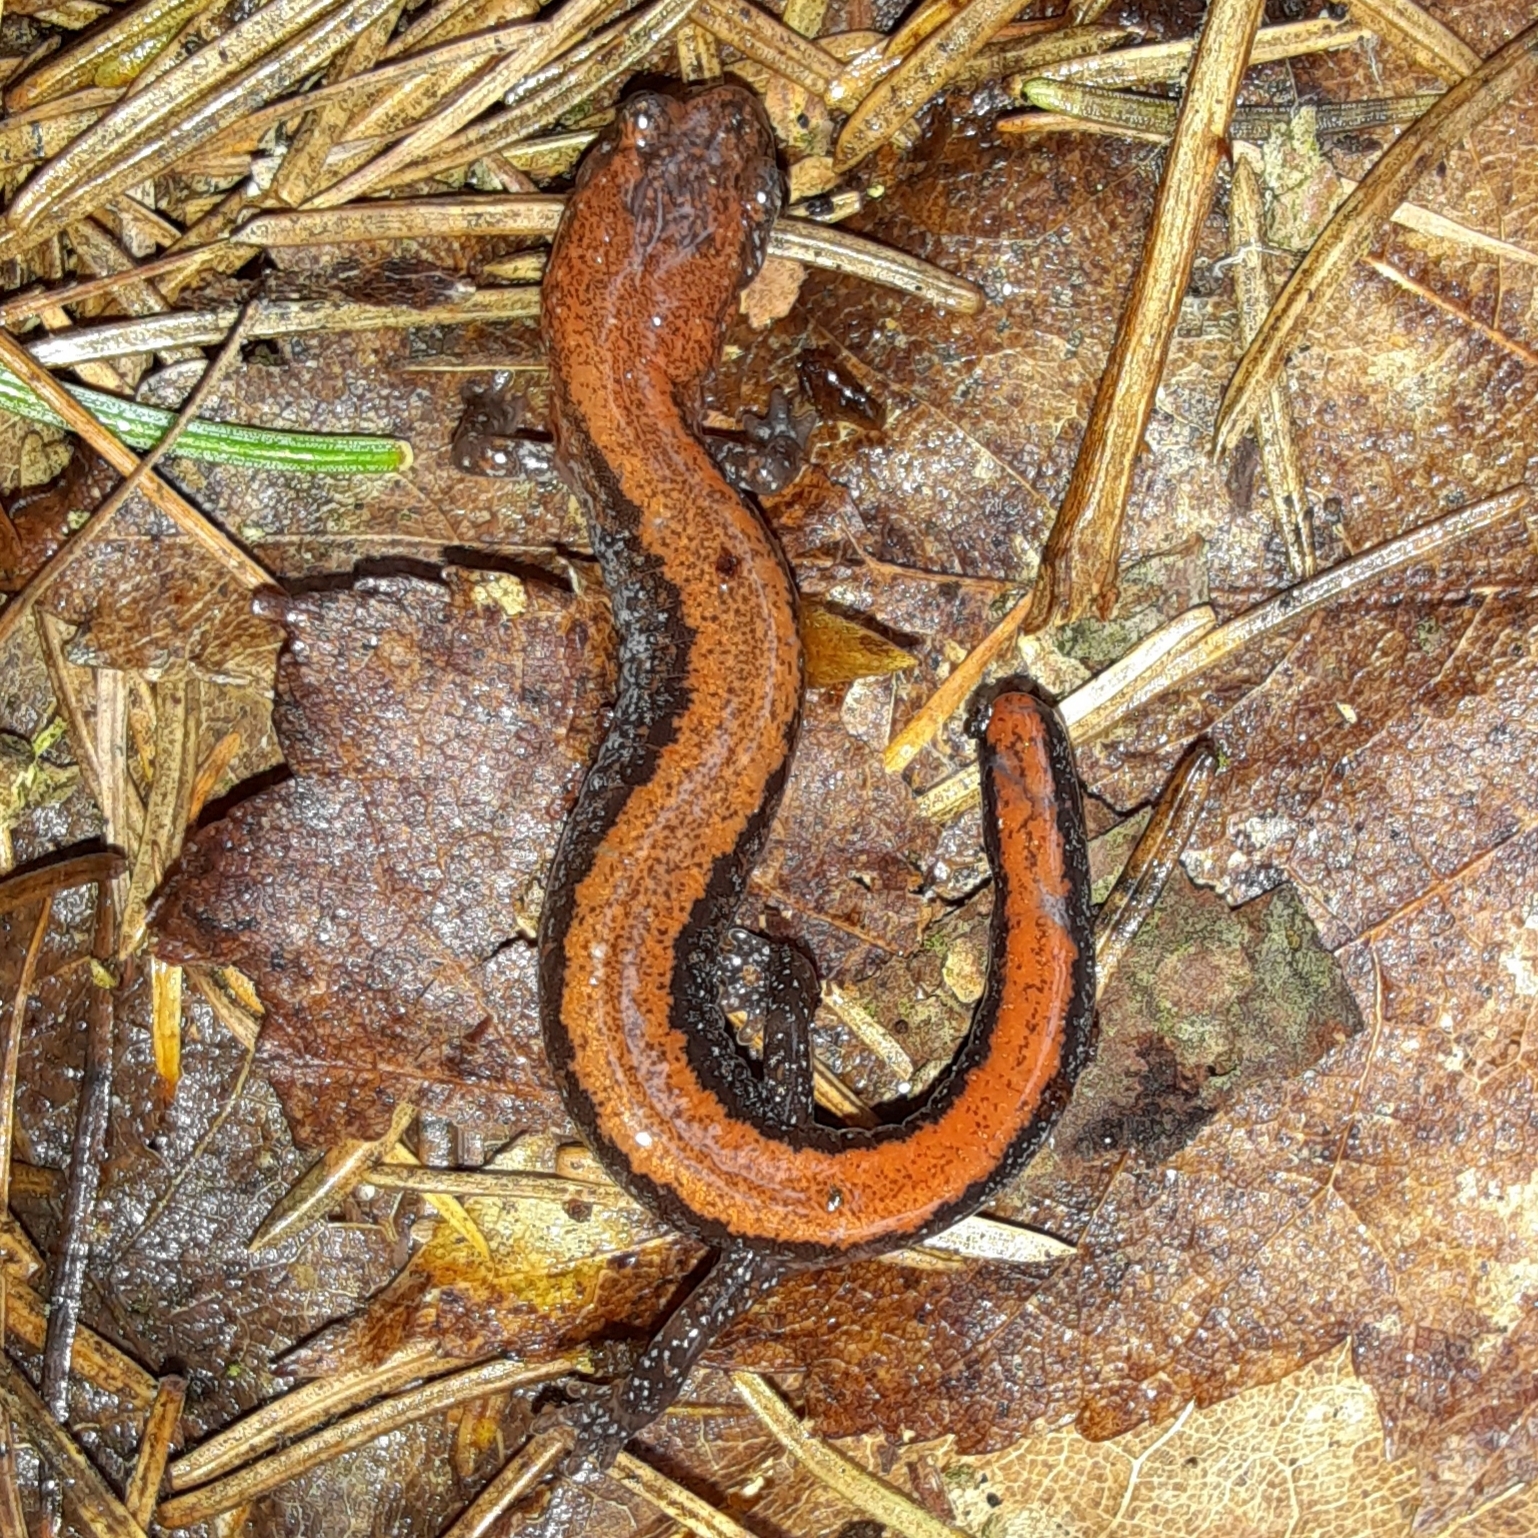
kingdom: Animalia
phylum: Chordata
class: Amphibia
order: Caudata
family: Plethodontidae
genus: Plethodon
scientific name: Plethodon cinereus
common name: Redback salamander
